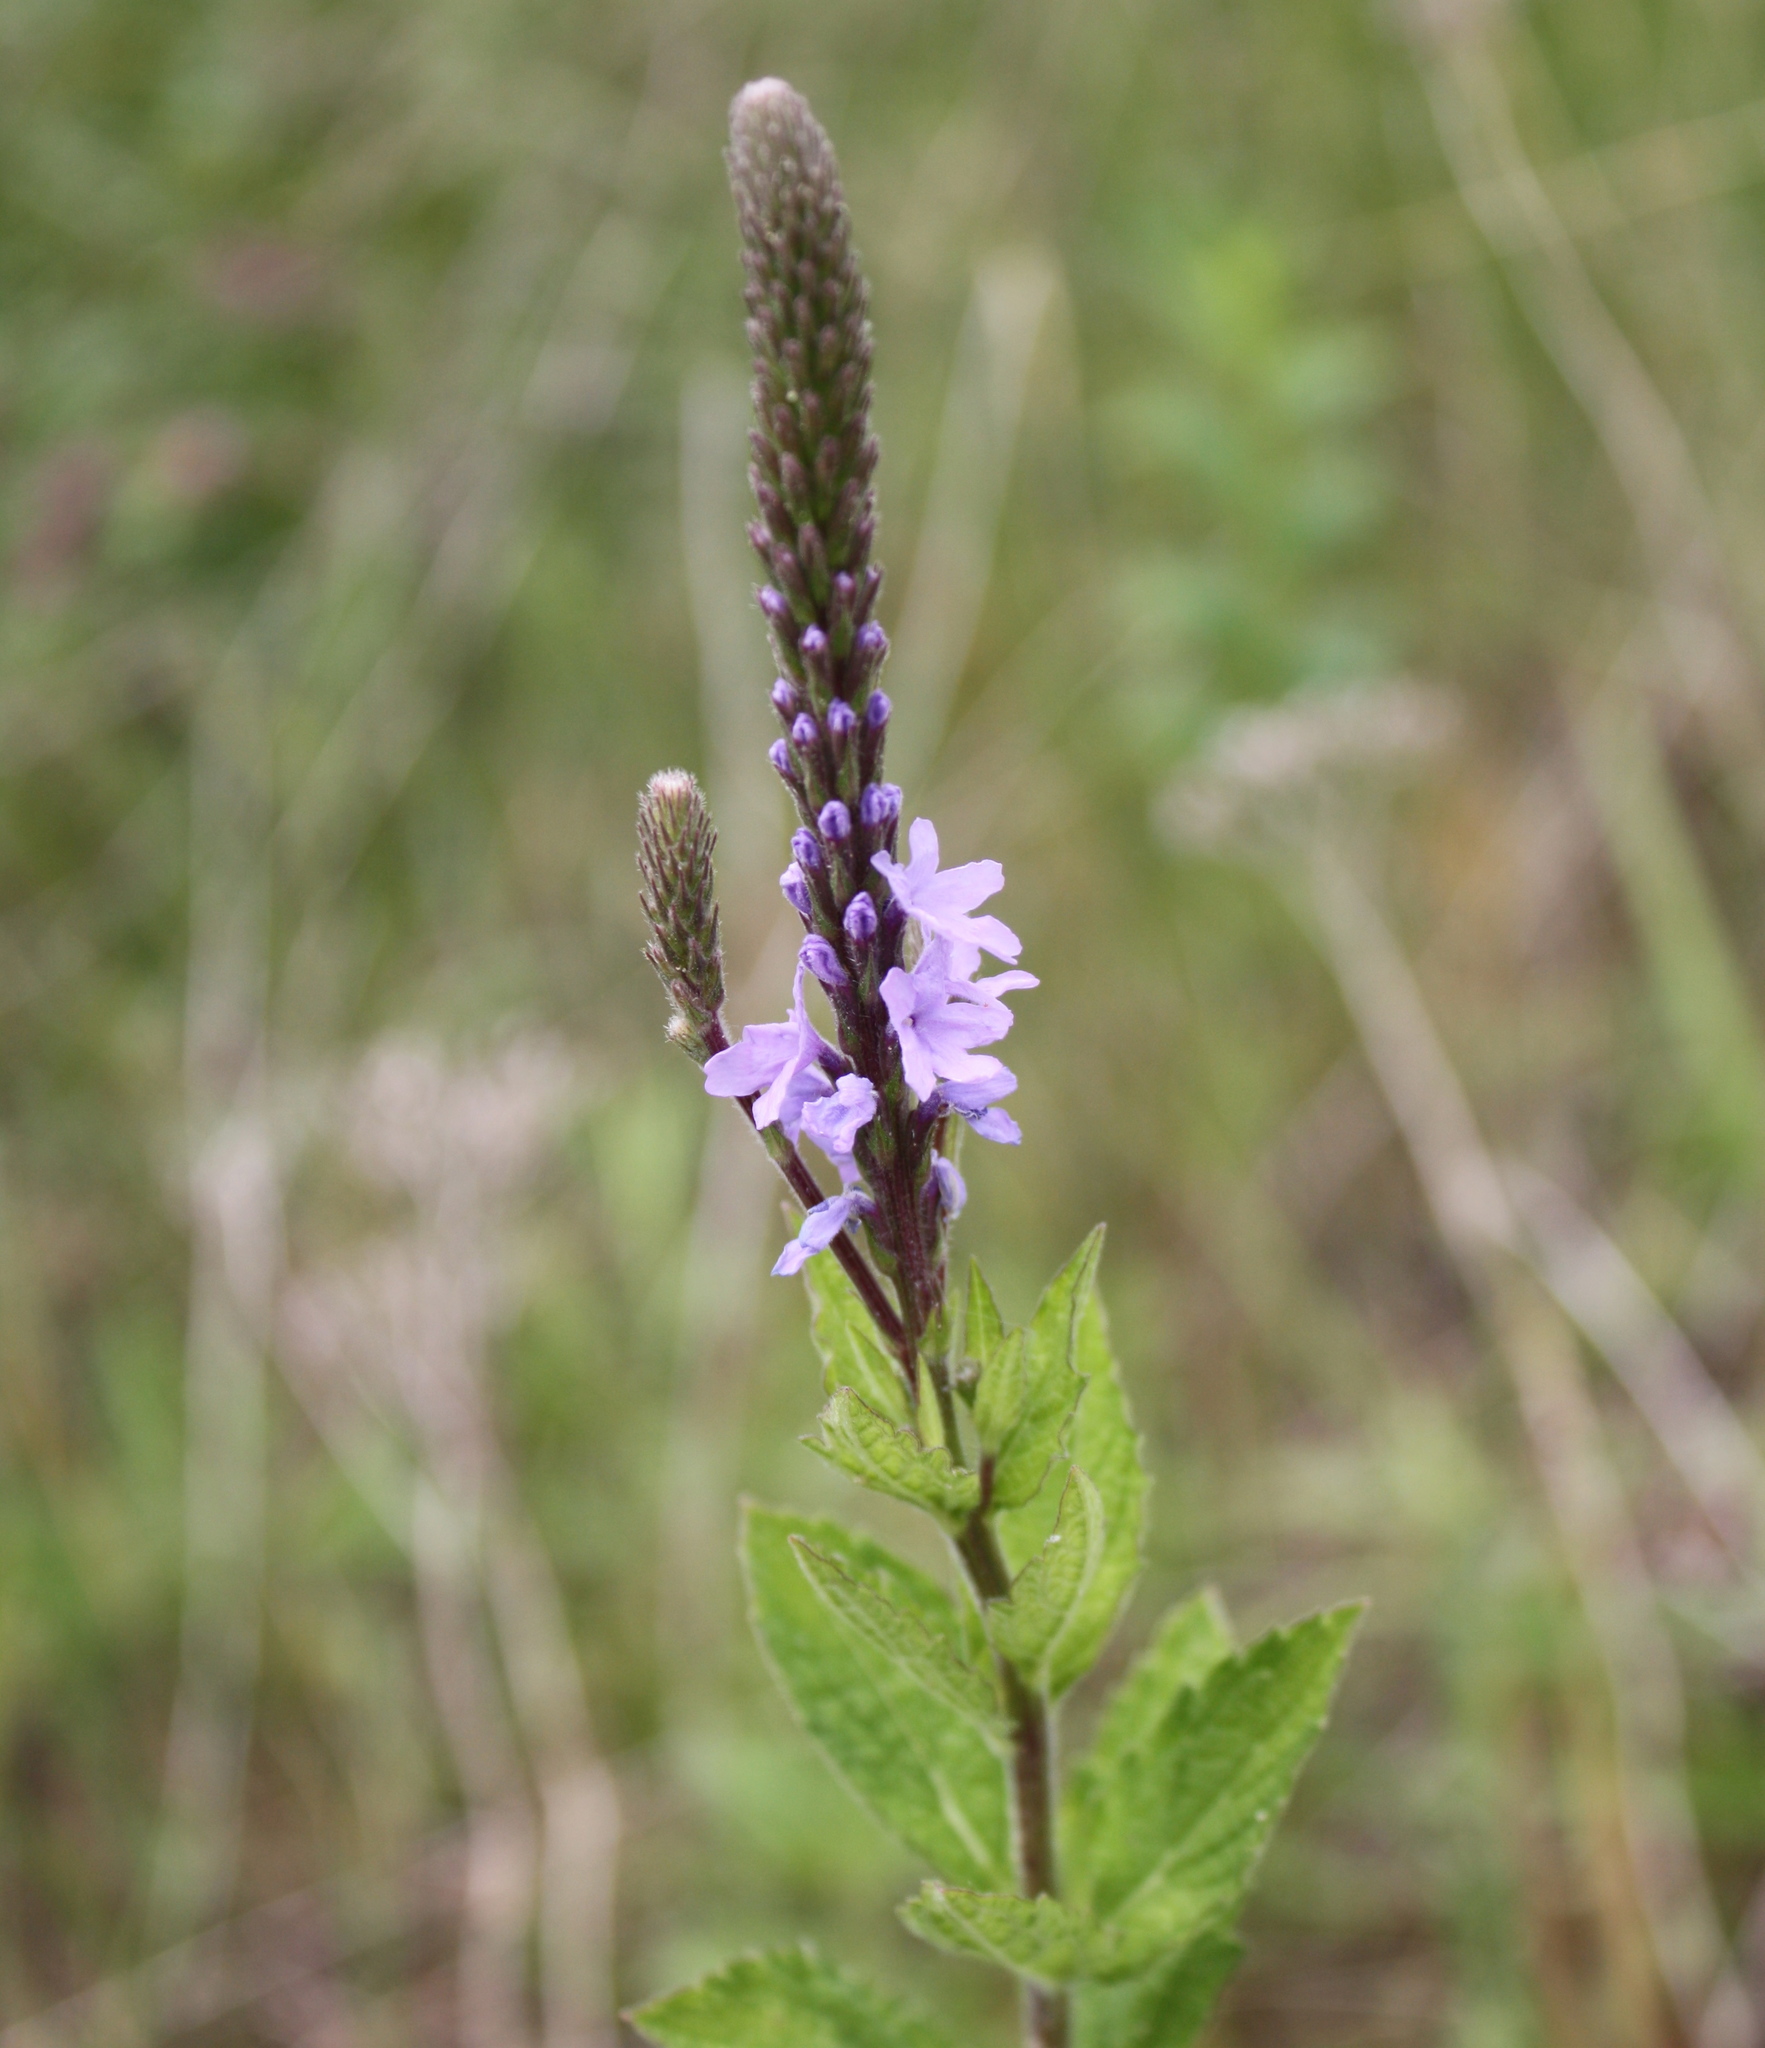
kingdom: Plantae
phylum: Tracheophyta
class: Magnoliopsida
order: Lamiales
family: Verbenaceae
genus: Verbena
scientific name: Verbena stricta
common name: Hoary vervain
